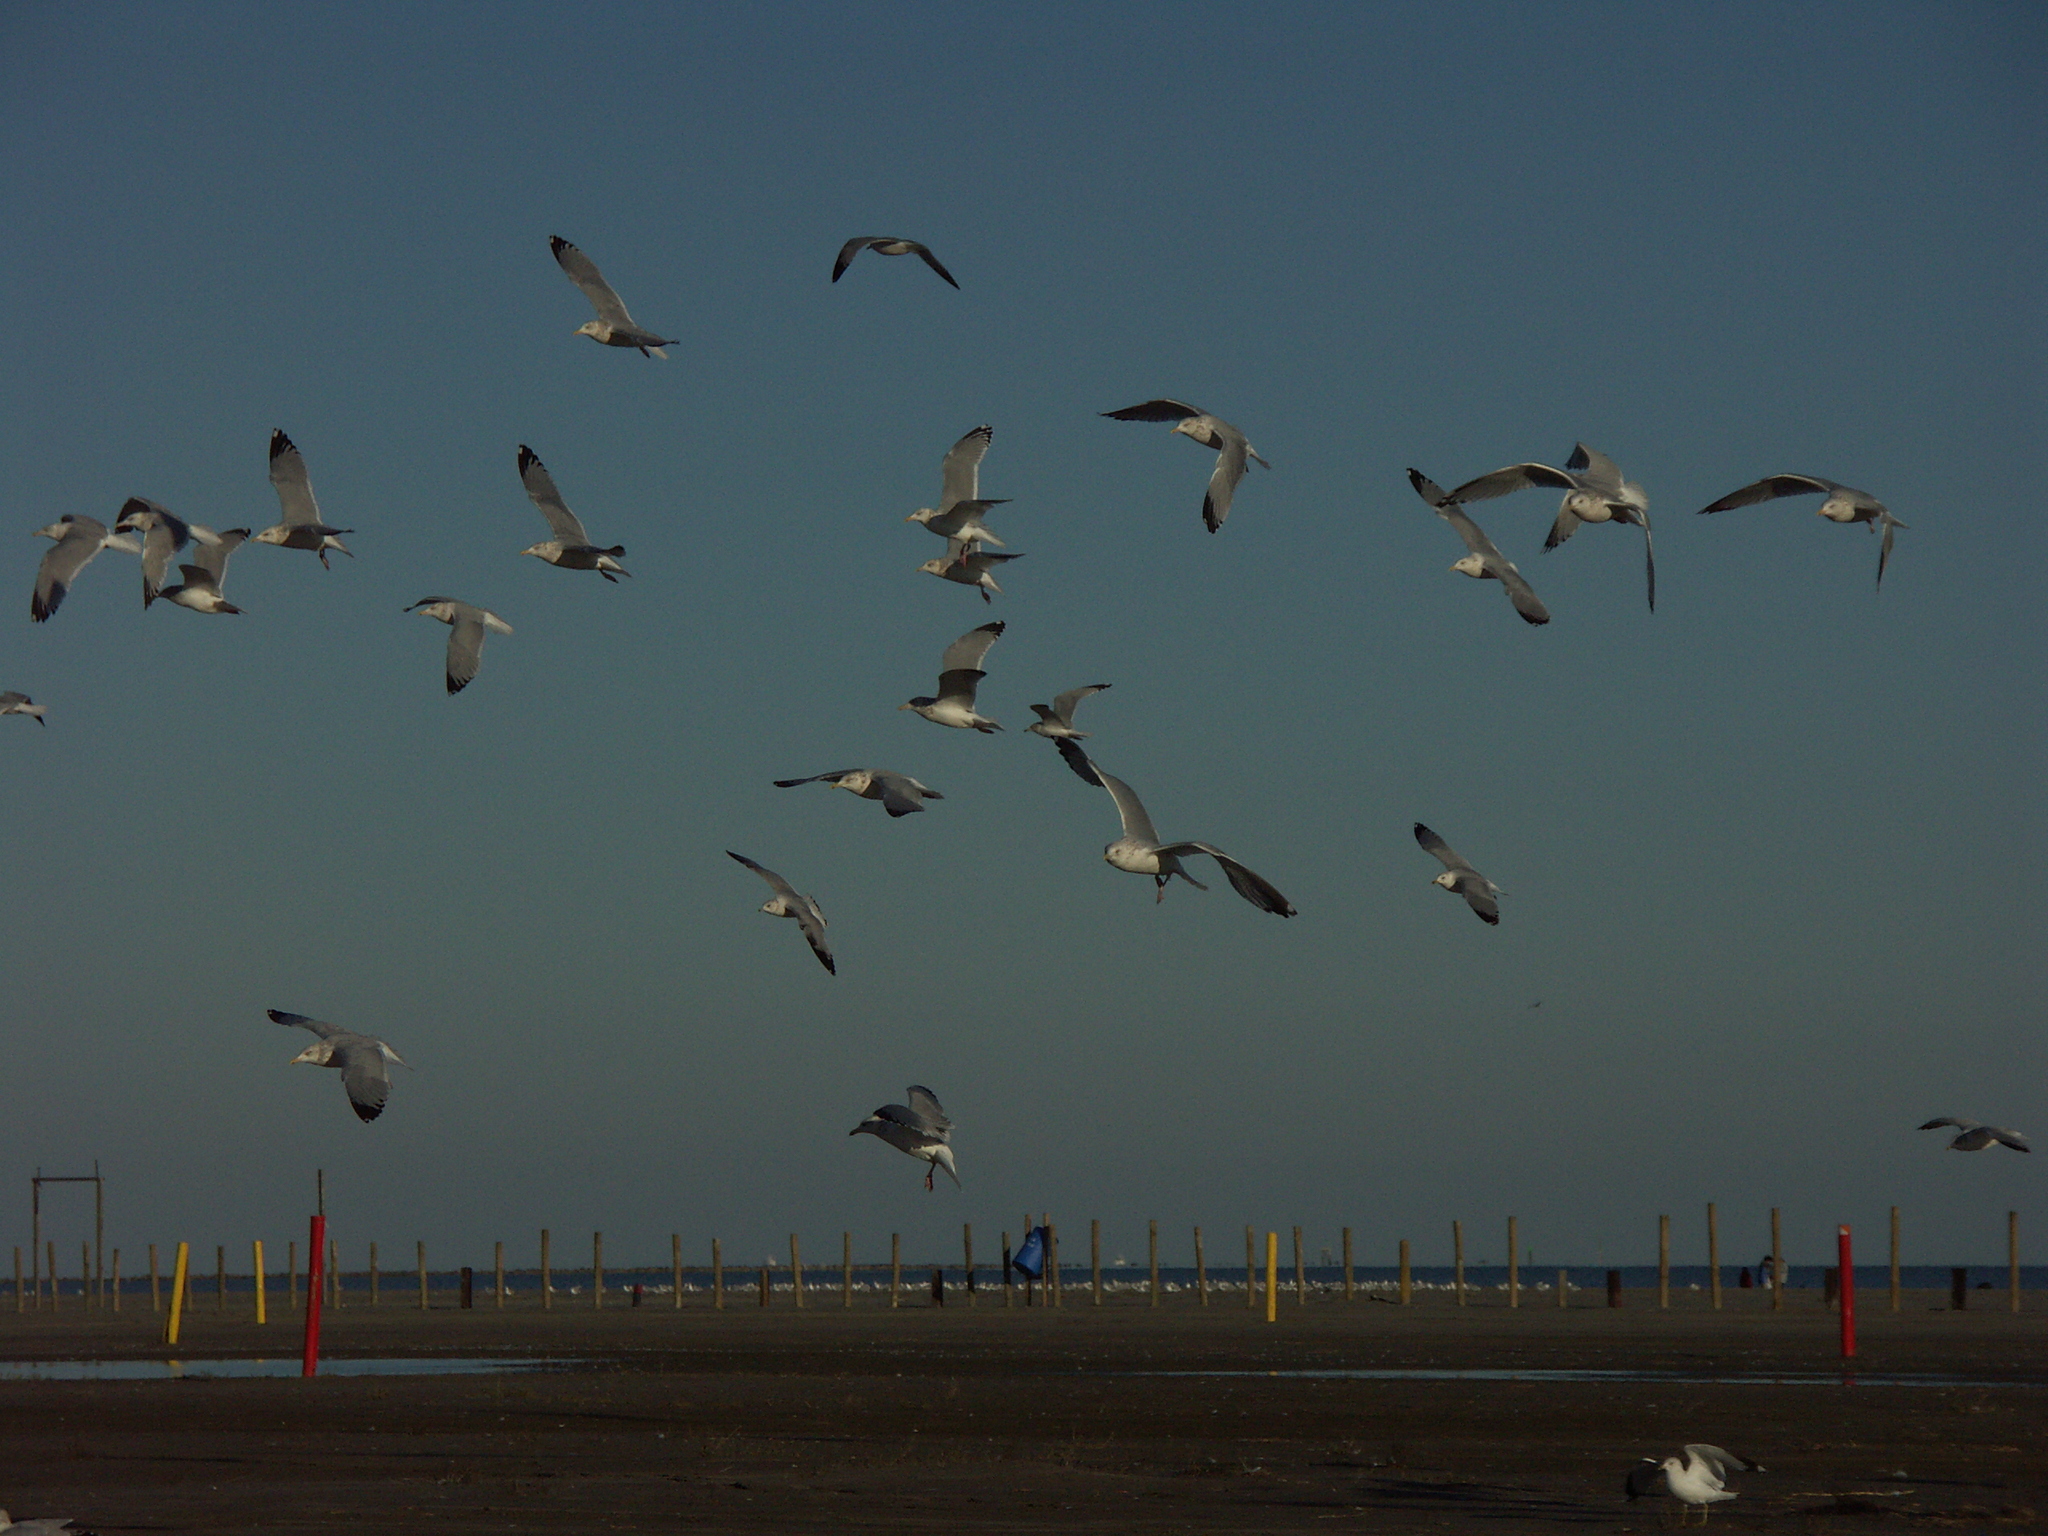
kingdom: Animalia
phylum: Chordata
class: Aves
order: Charadriiformes
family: Laridae
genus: Larus
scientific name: Larus delawarensis
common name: Ring-billed gull
